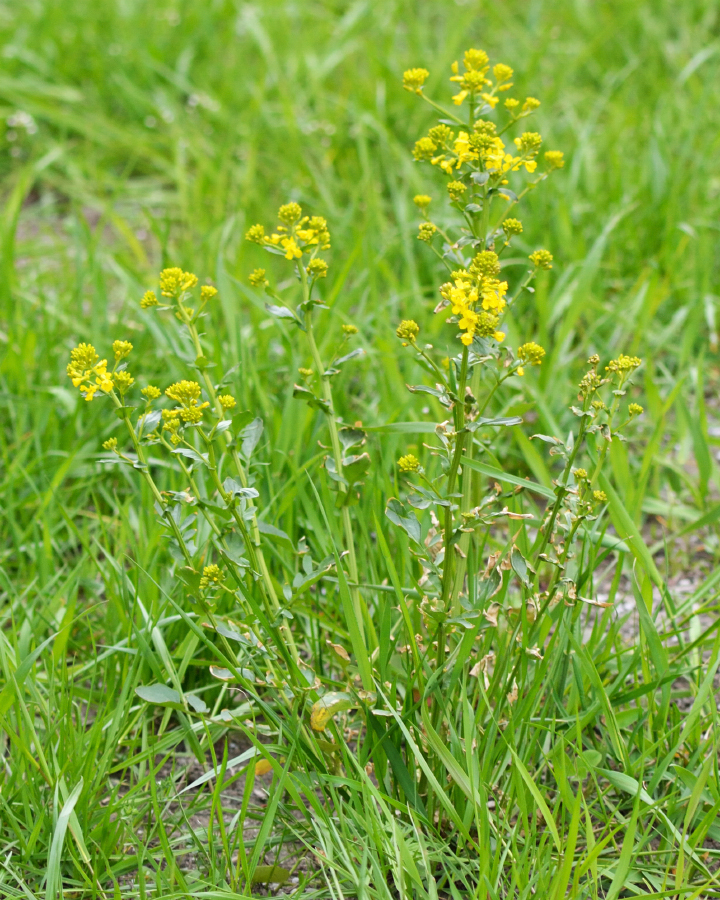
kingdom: Plantae
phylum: Tracheophyta
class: Magnoliopsida
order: Brassicales
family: Brassicaceae
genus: Barbarea
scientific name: Barbarea vulgaris
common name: Cressy-greens
